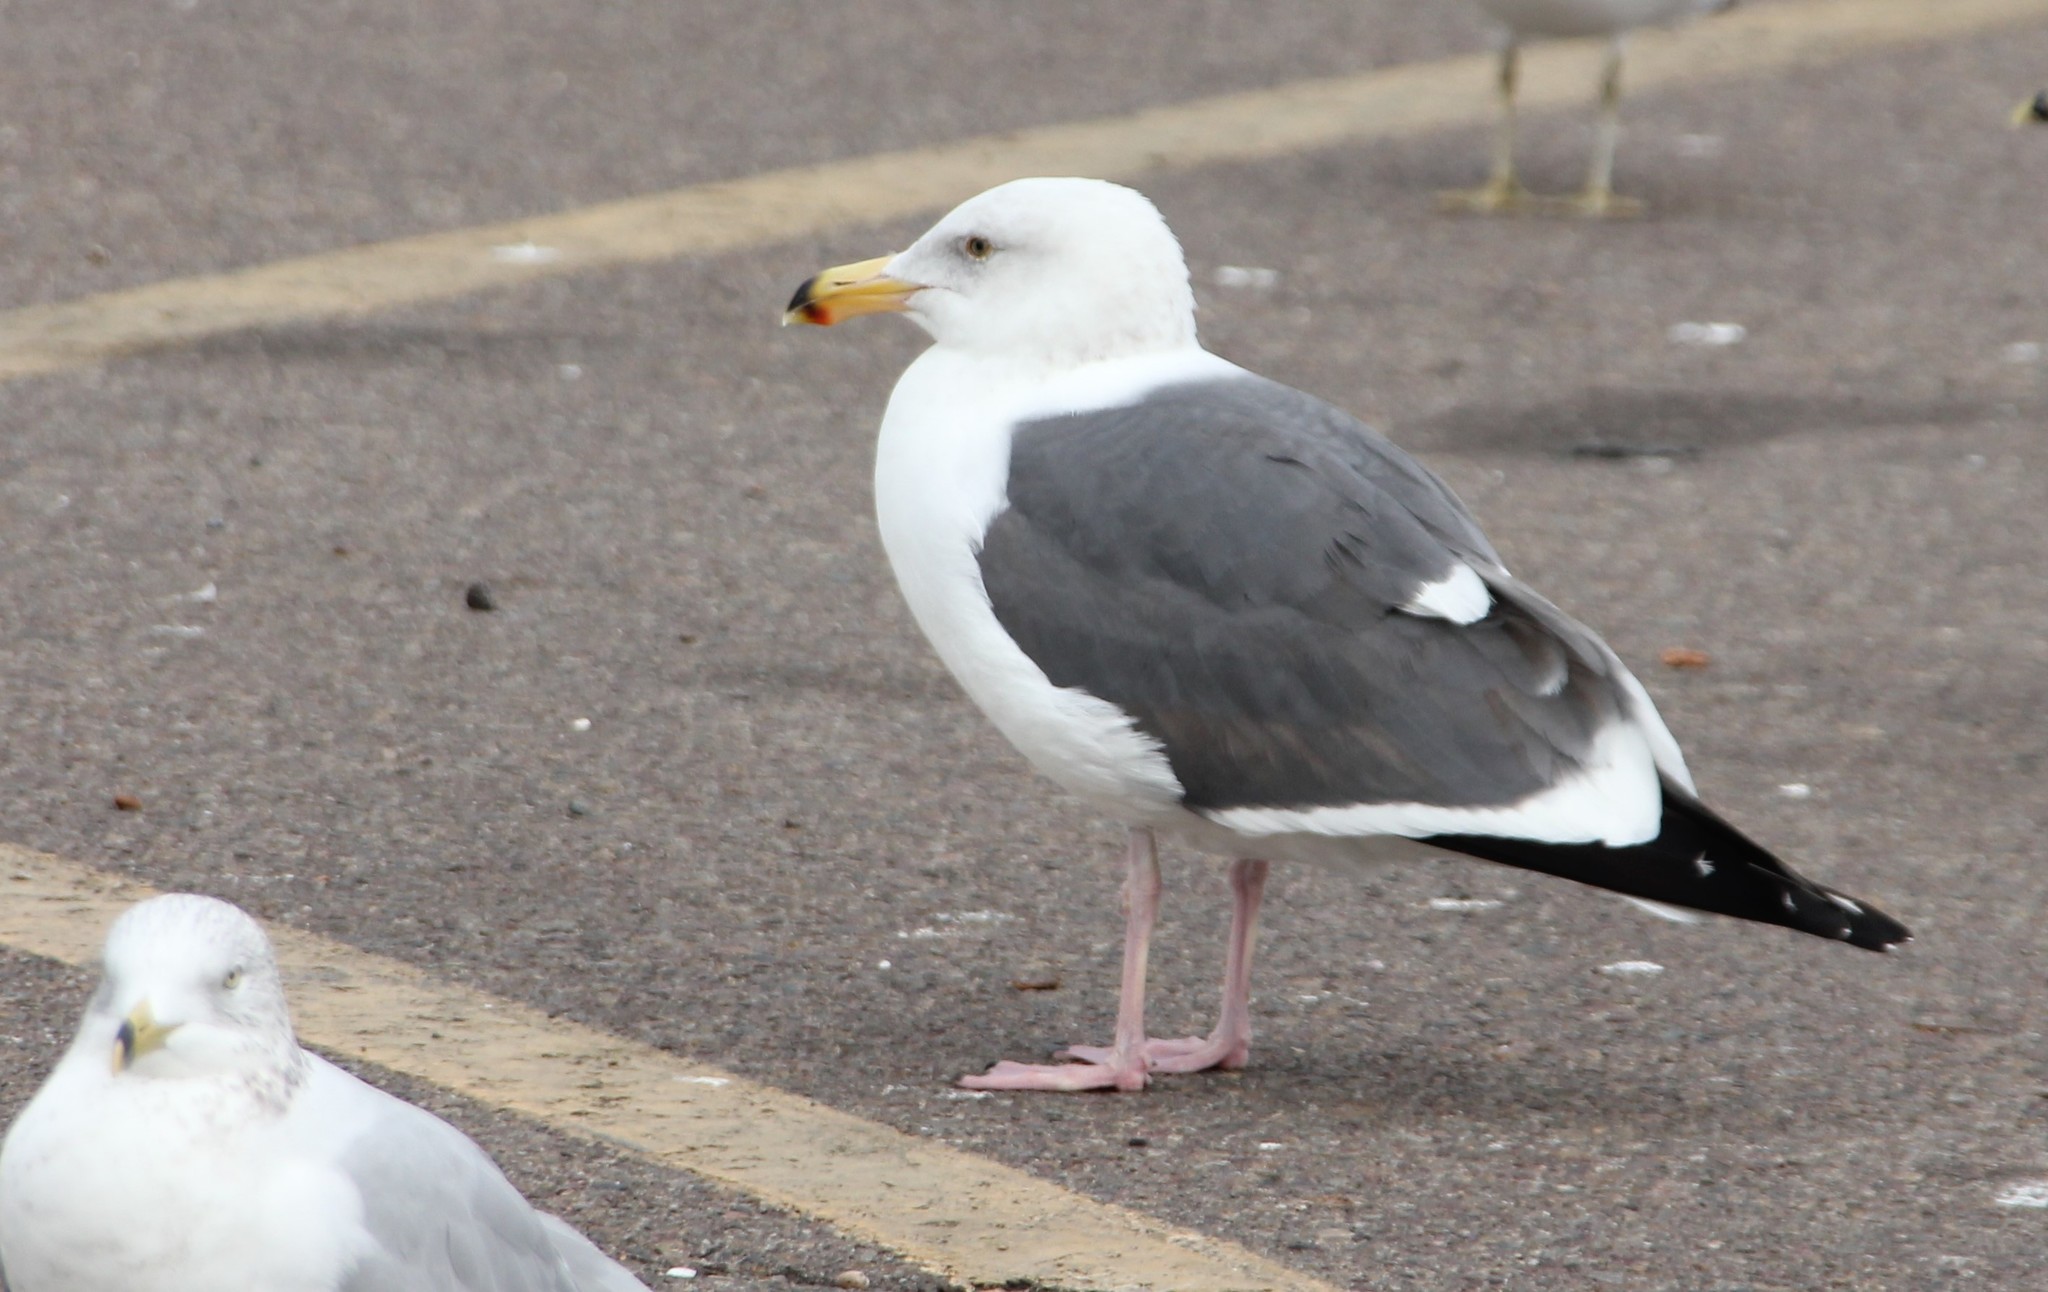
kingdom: Animalia
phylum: Chordata
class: Aves
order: Charadriiformes
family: Laridae
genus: Larus
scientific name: Larus occidentalis
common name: Western gull
